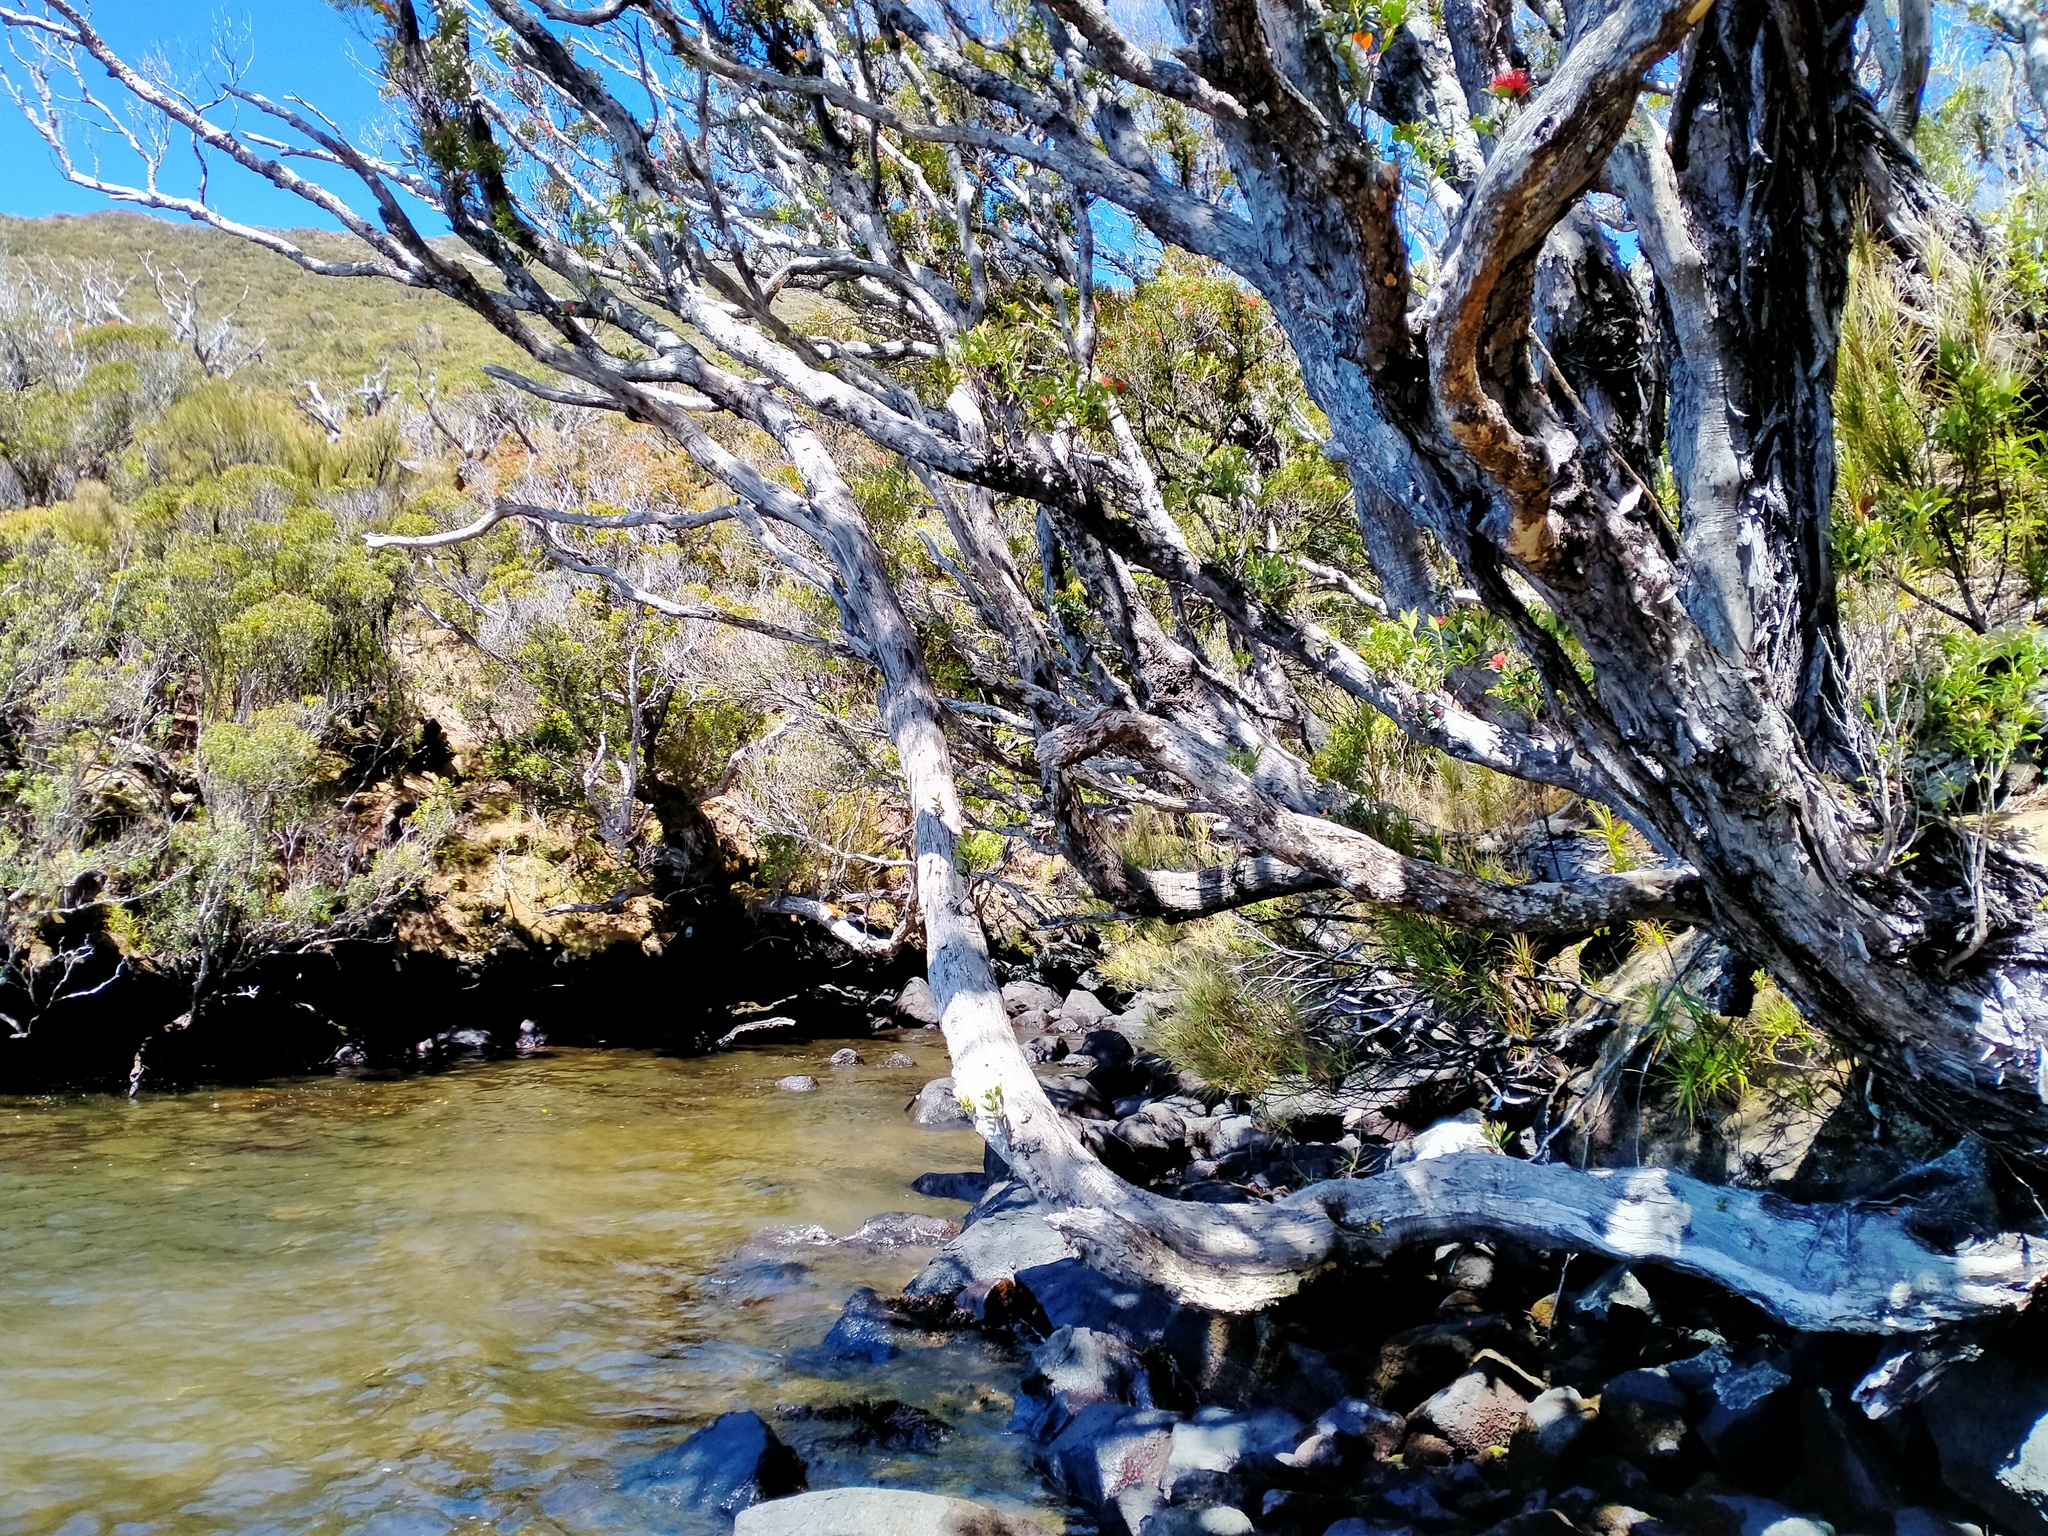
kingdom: Plantae
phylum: Tracheophyta
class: Magnoliopsida
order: Myrtales
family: Myrtaceae
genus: Metrosideros
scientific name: Metrosideros umbellata
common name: Southern rata
